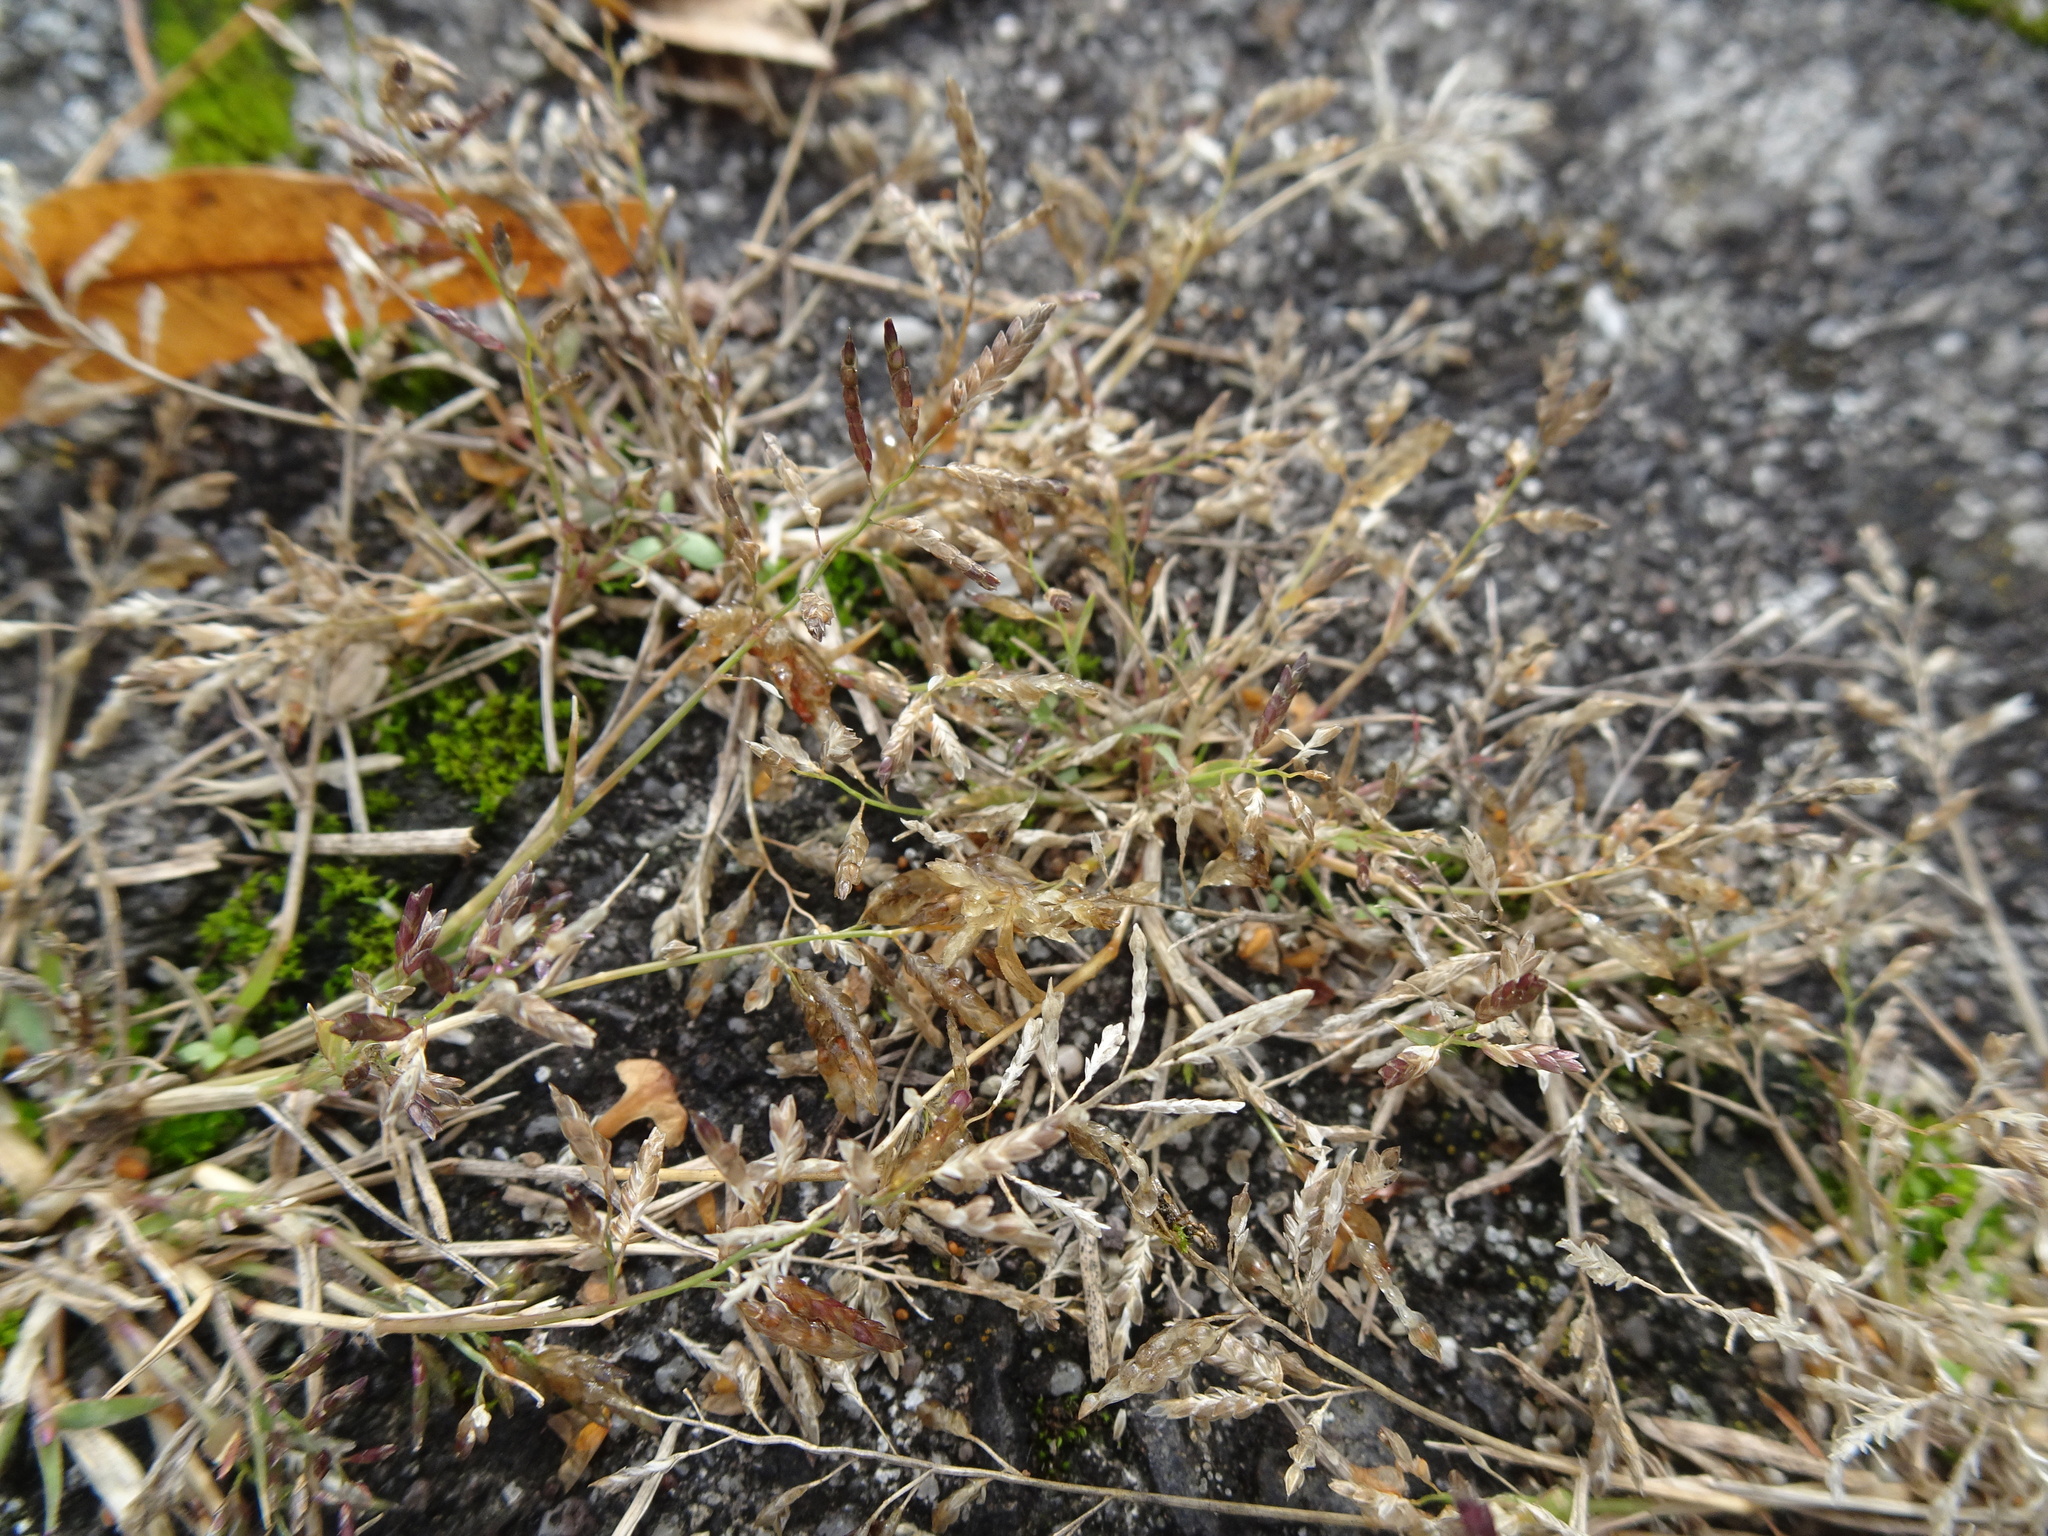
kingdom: Plantae
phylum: Tracheophyta
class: Liliopsida
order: Poales
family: Poaceae
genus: Eragrostis
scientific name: Eragrostis minor
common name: Small love-grass
